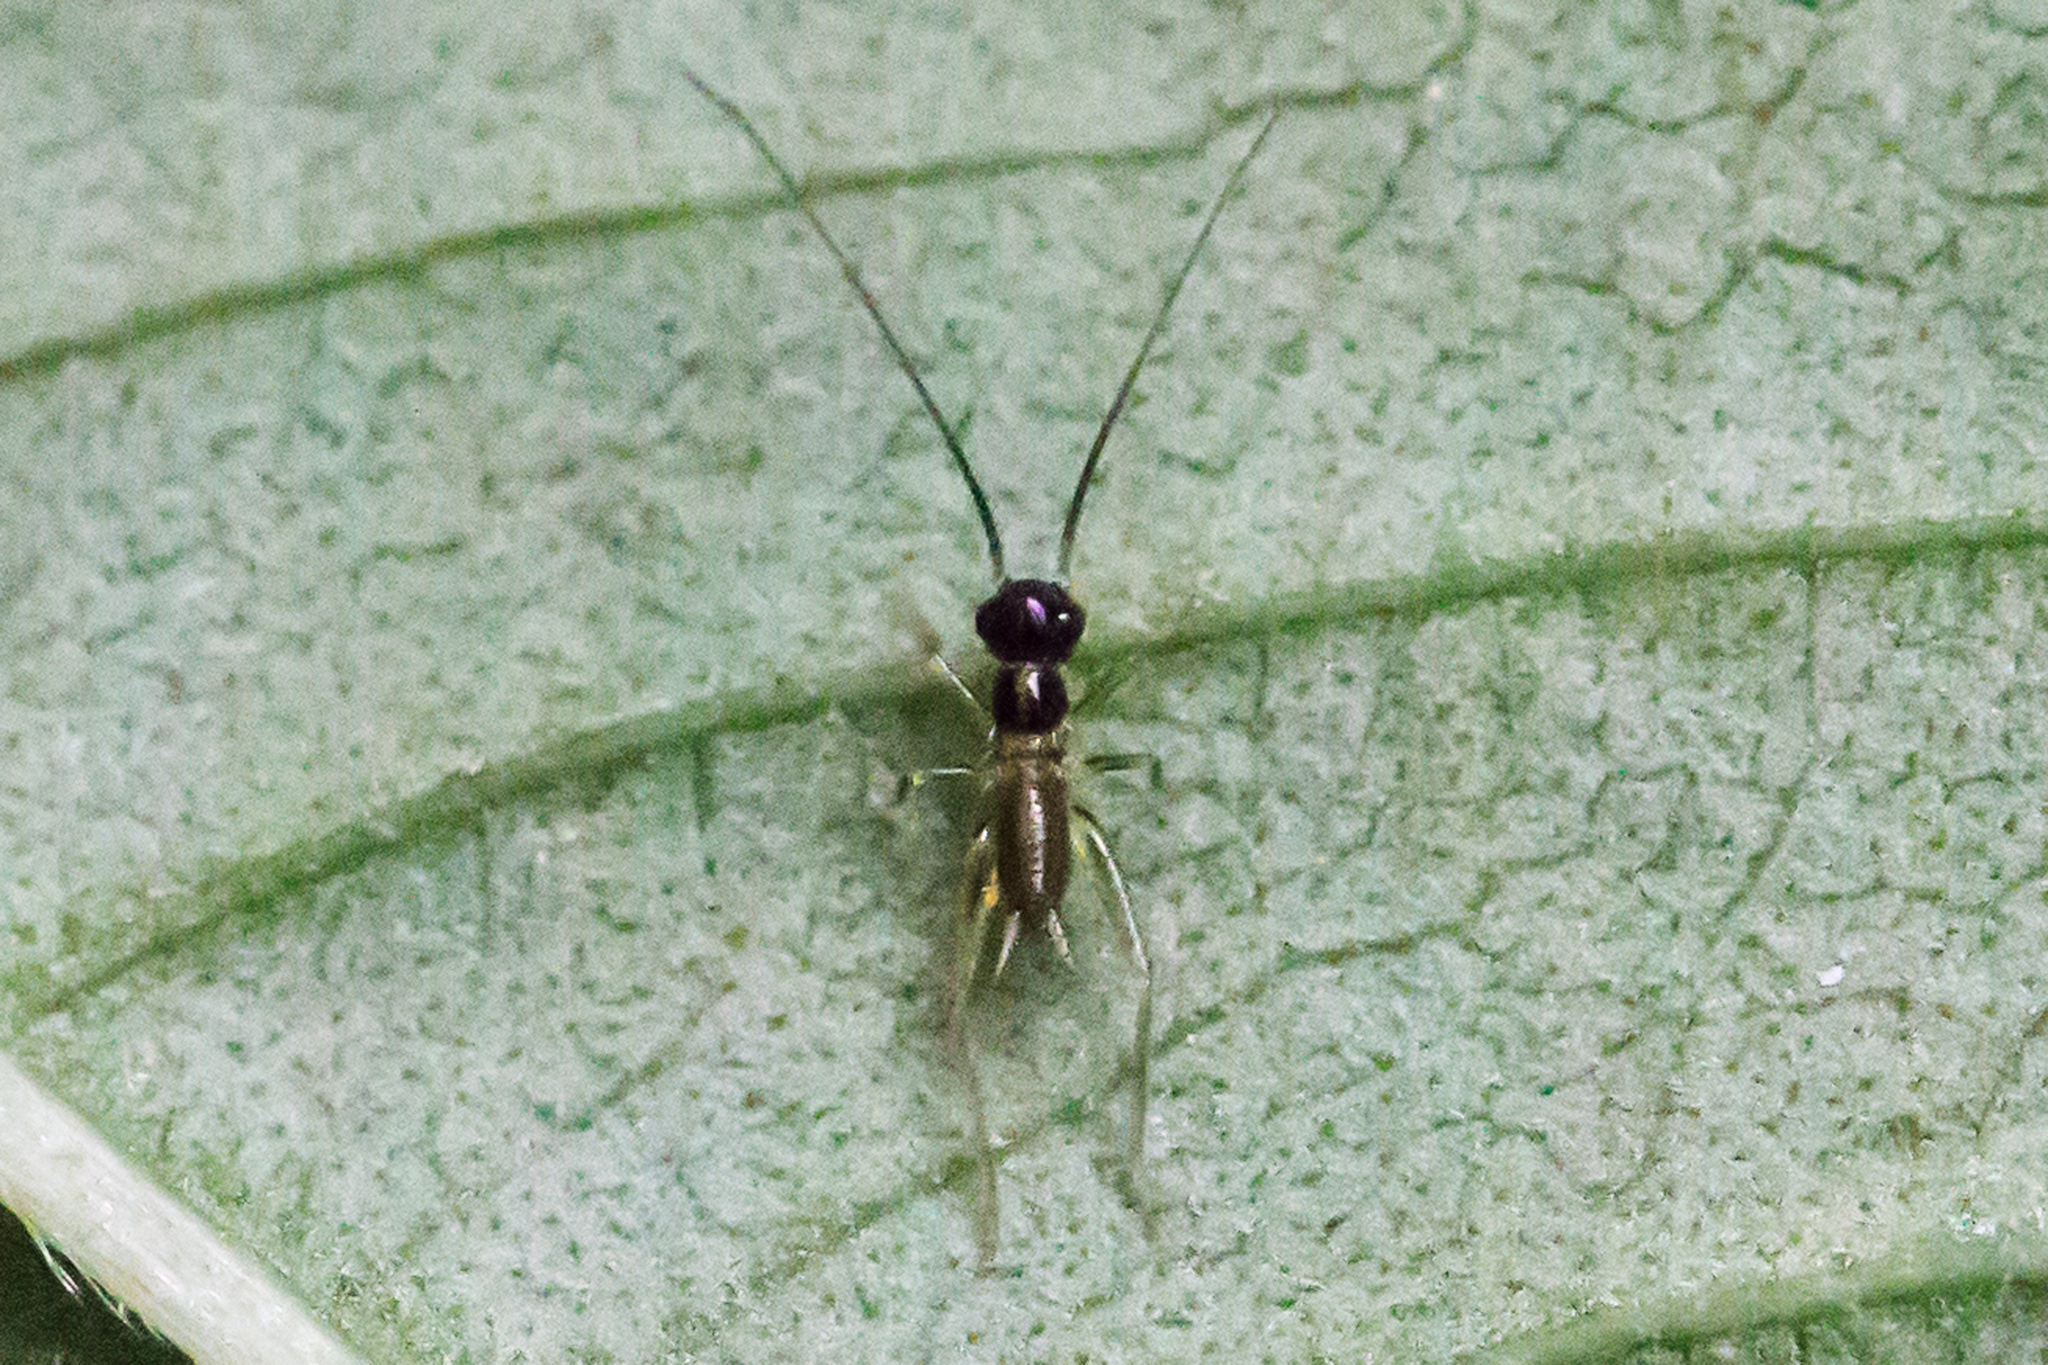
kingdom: Animalia
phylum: Arthropoda
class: Insecta
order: Orthoptera
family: Trigonidiidae
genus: Phyllopalpus
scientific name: Phyllopalpus pulchellus
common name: Handsome trig
